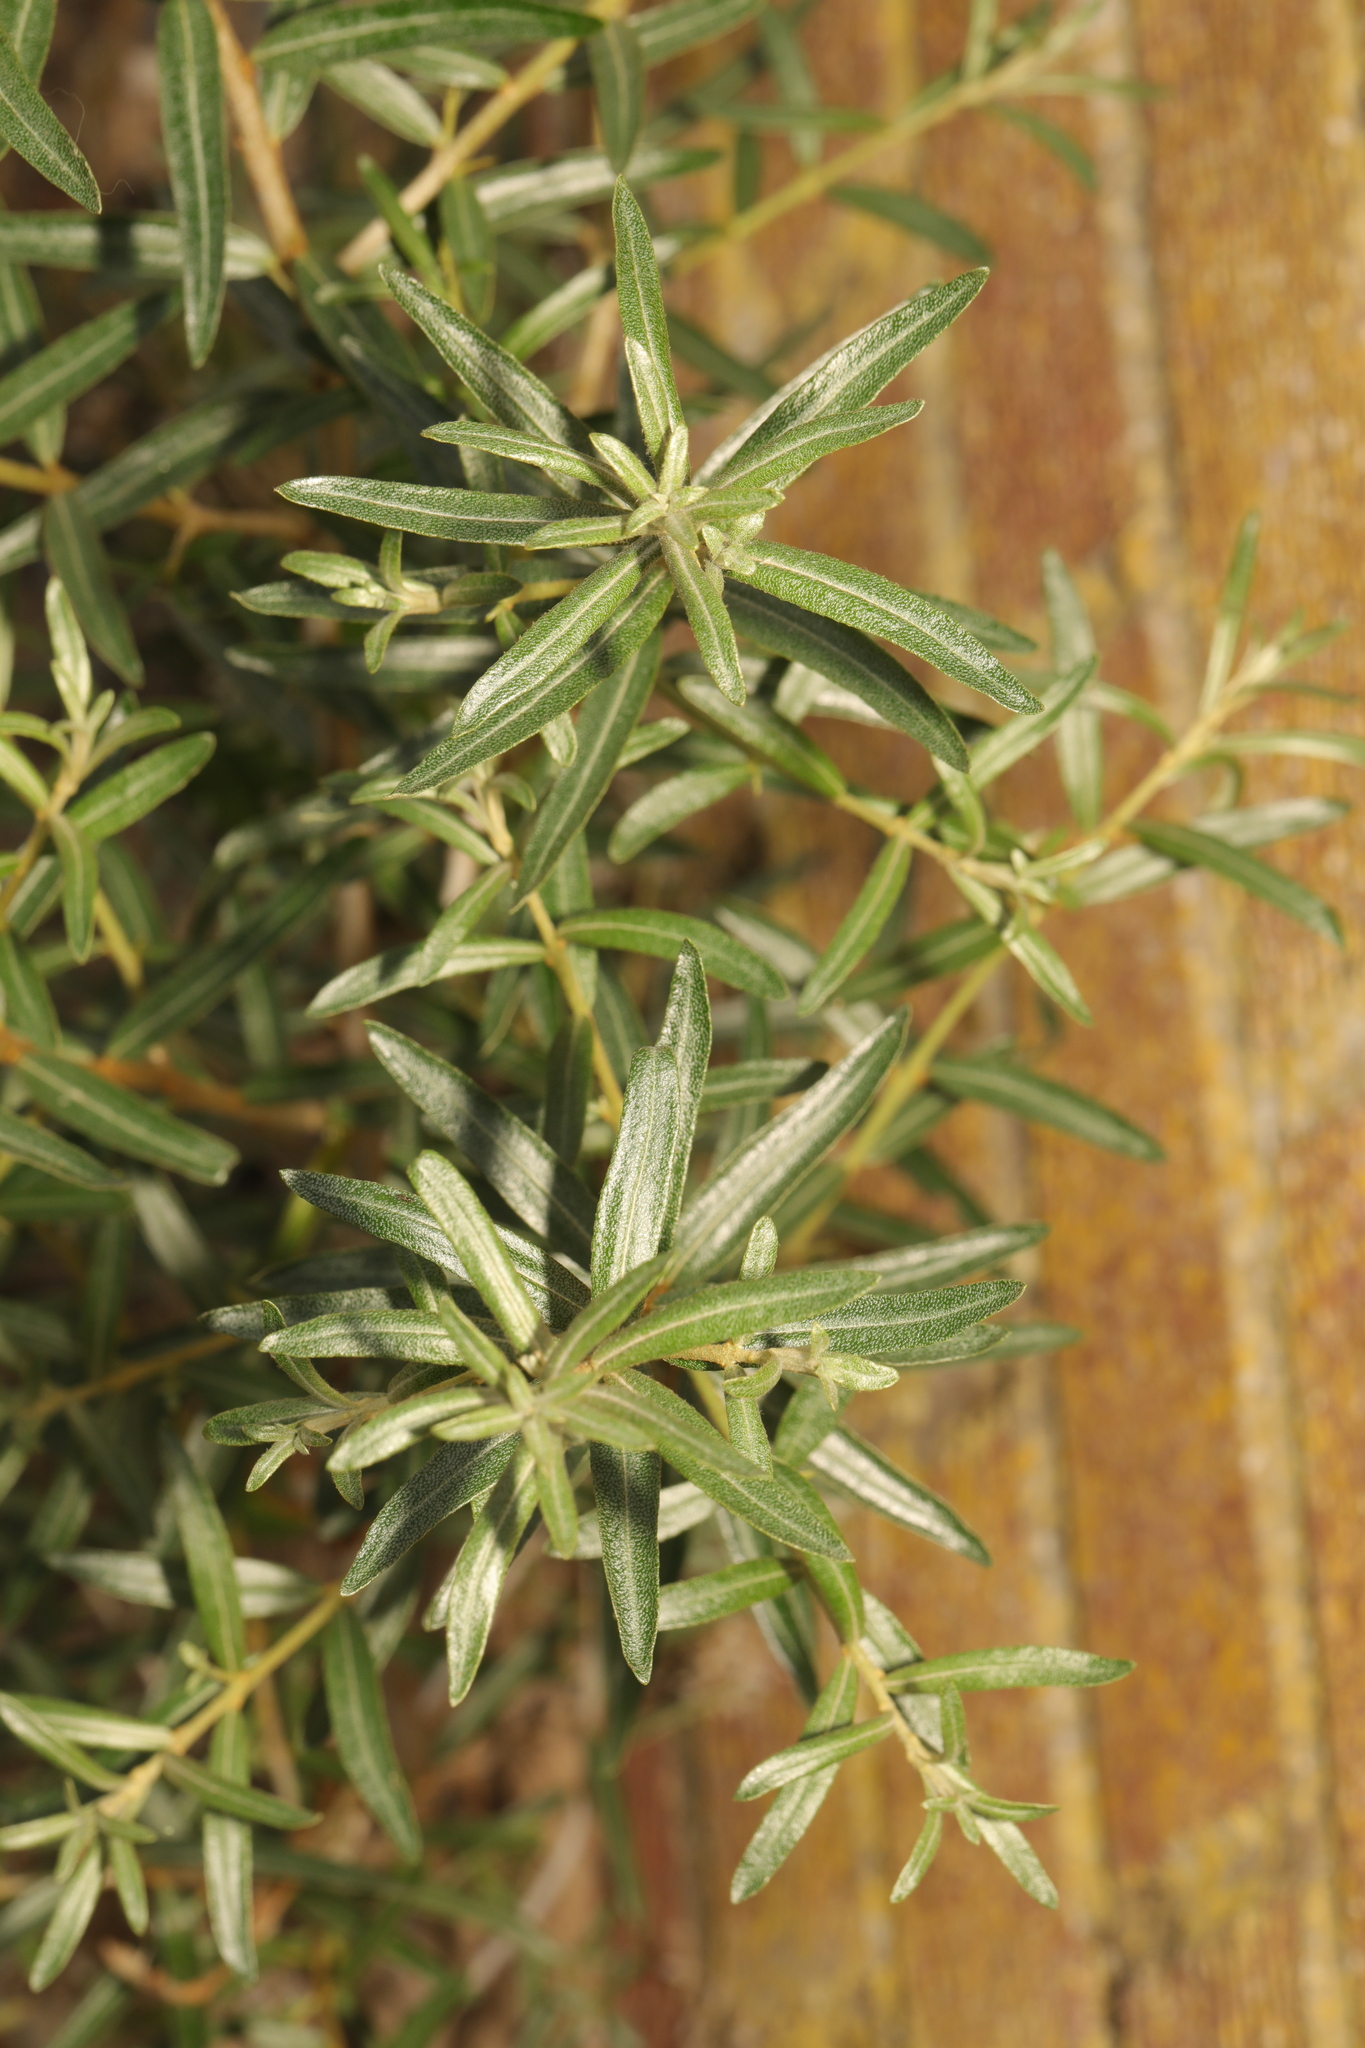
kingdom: Plantae
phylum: Tracheophyta
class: Magnoliopsida
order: Rosales
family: Elaeagnaceae
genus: Hippophae
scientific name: Hippophae rhamnoides
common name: Sea-buckthorn
